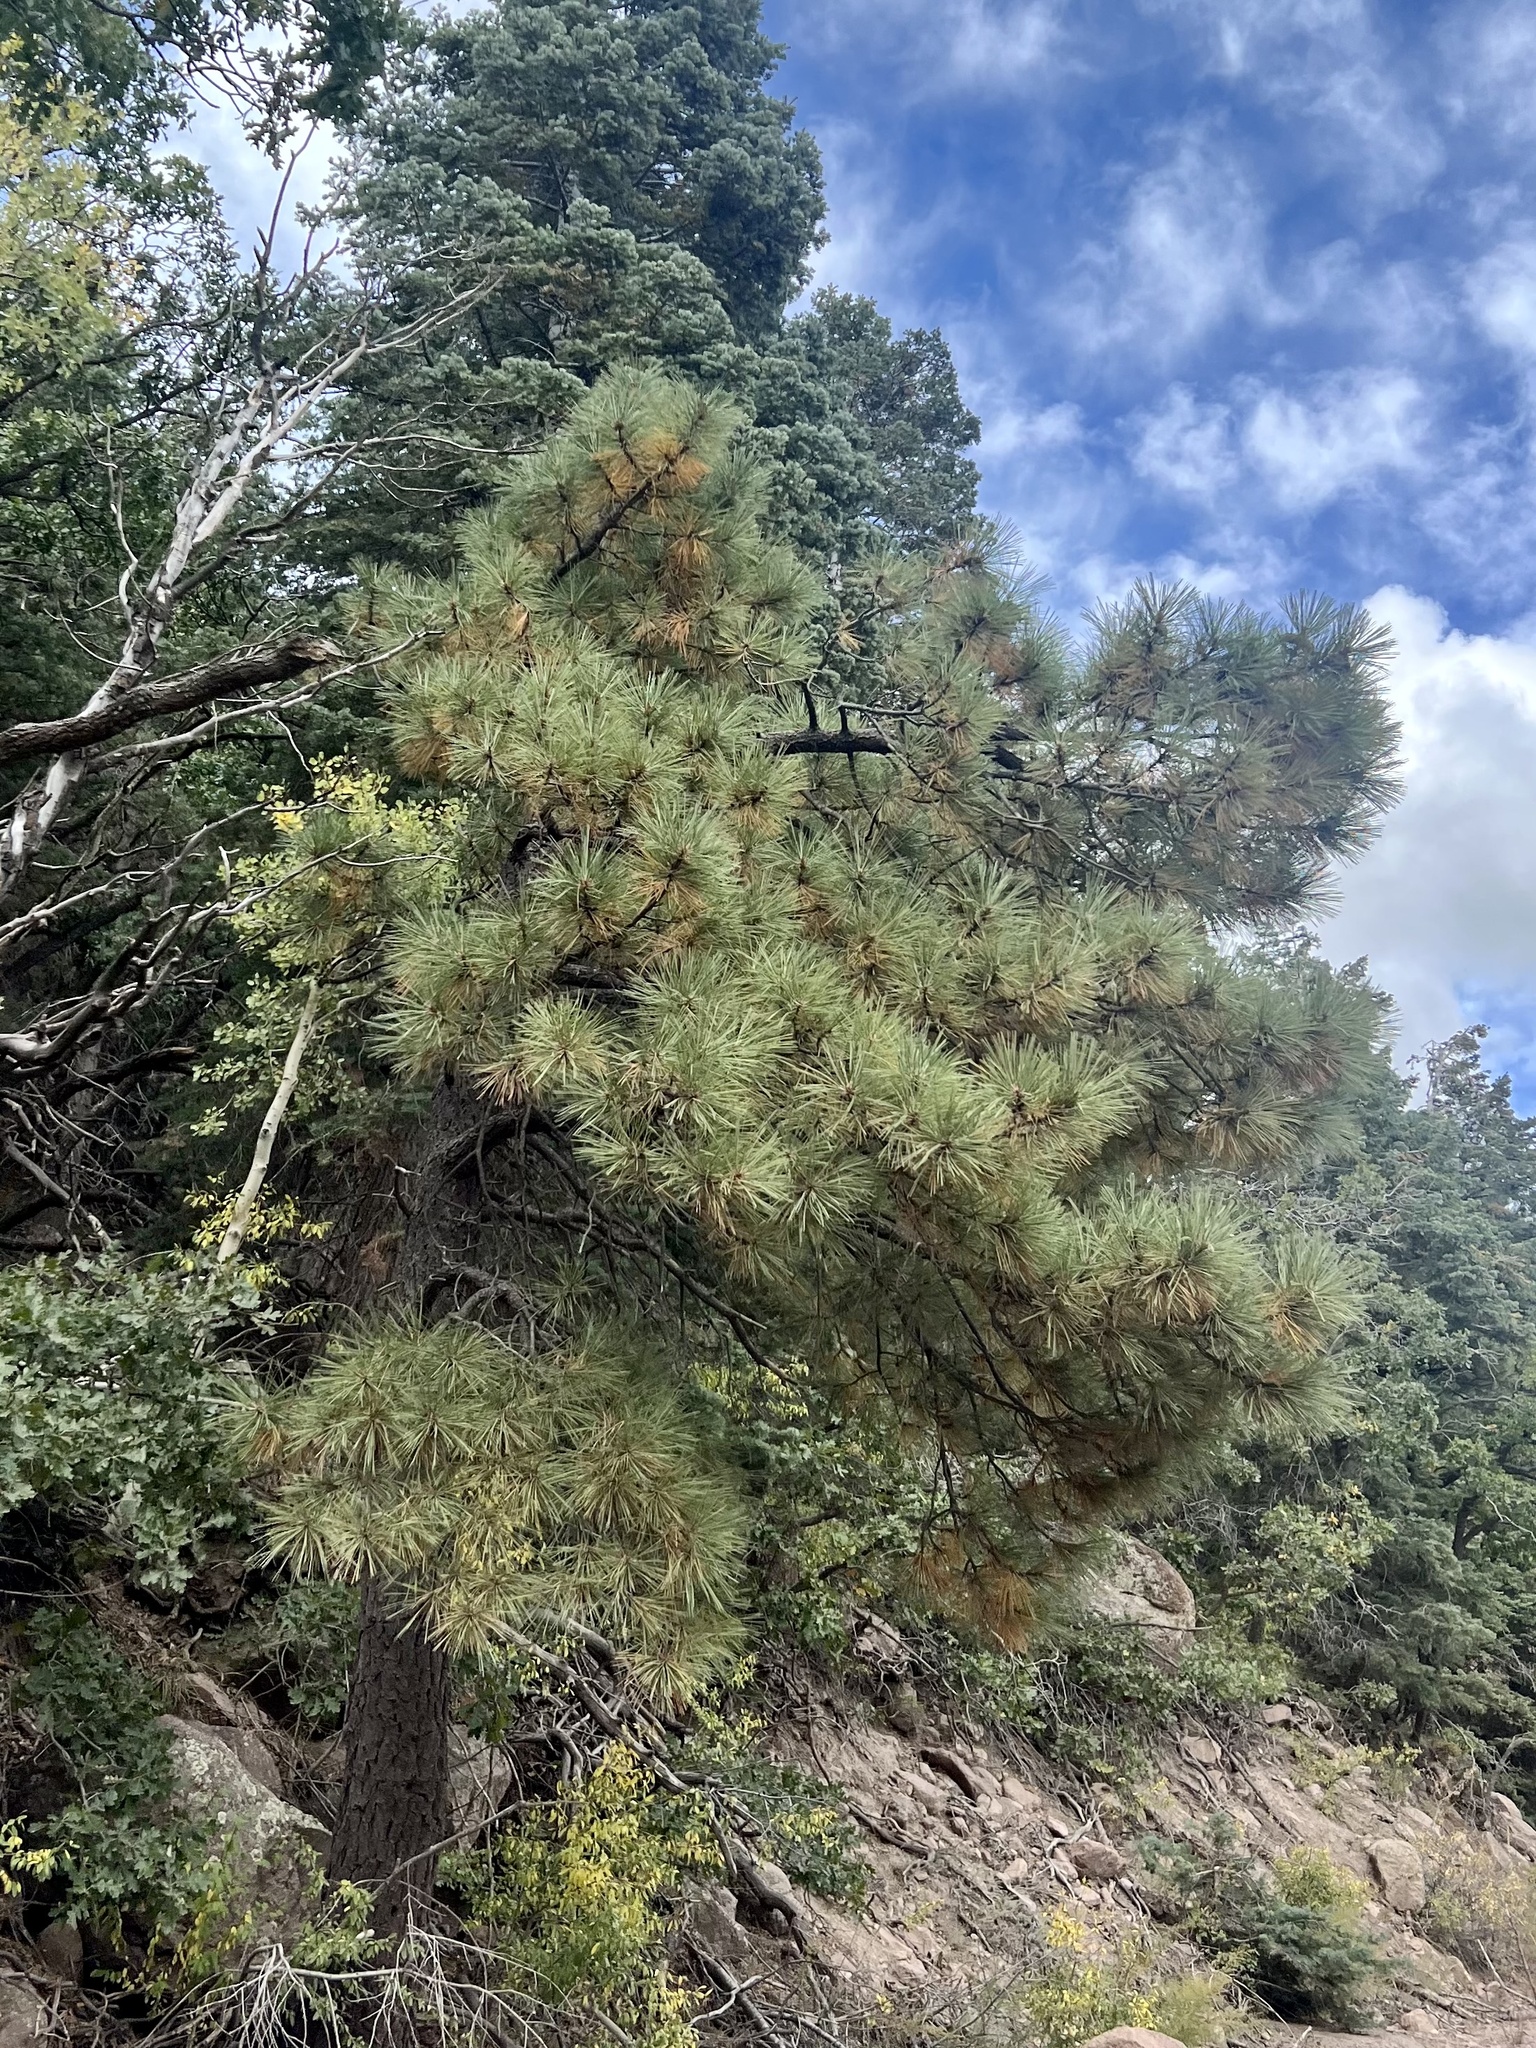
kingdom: Plantae
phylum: Tracheophyta
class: Pinopsida
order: Pinales
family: Pinaceae
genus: Pinus
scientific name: Pinus ponderosa
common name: Western yellow-pine
